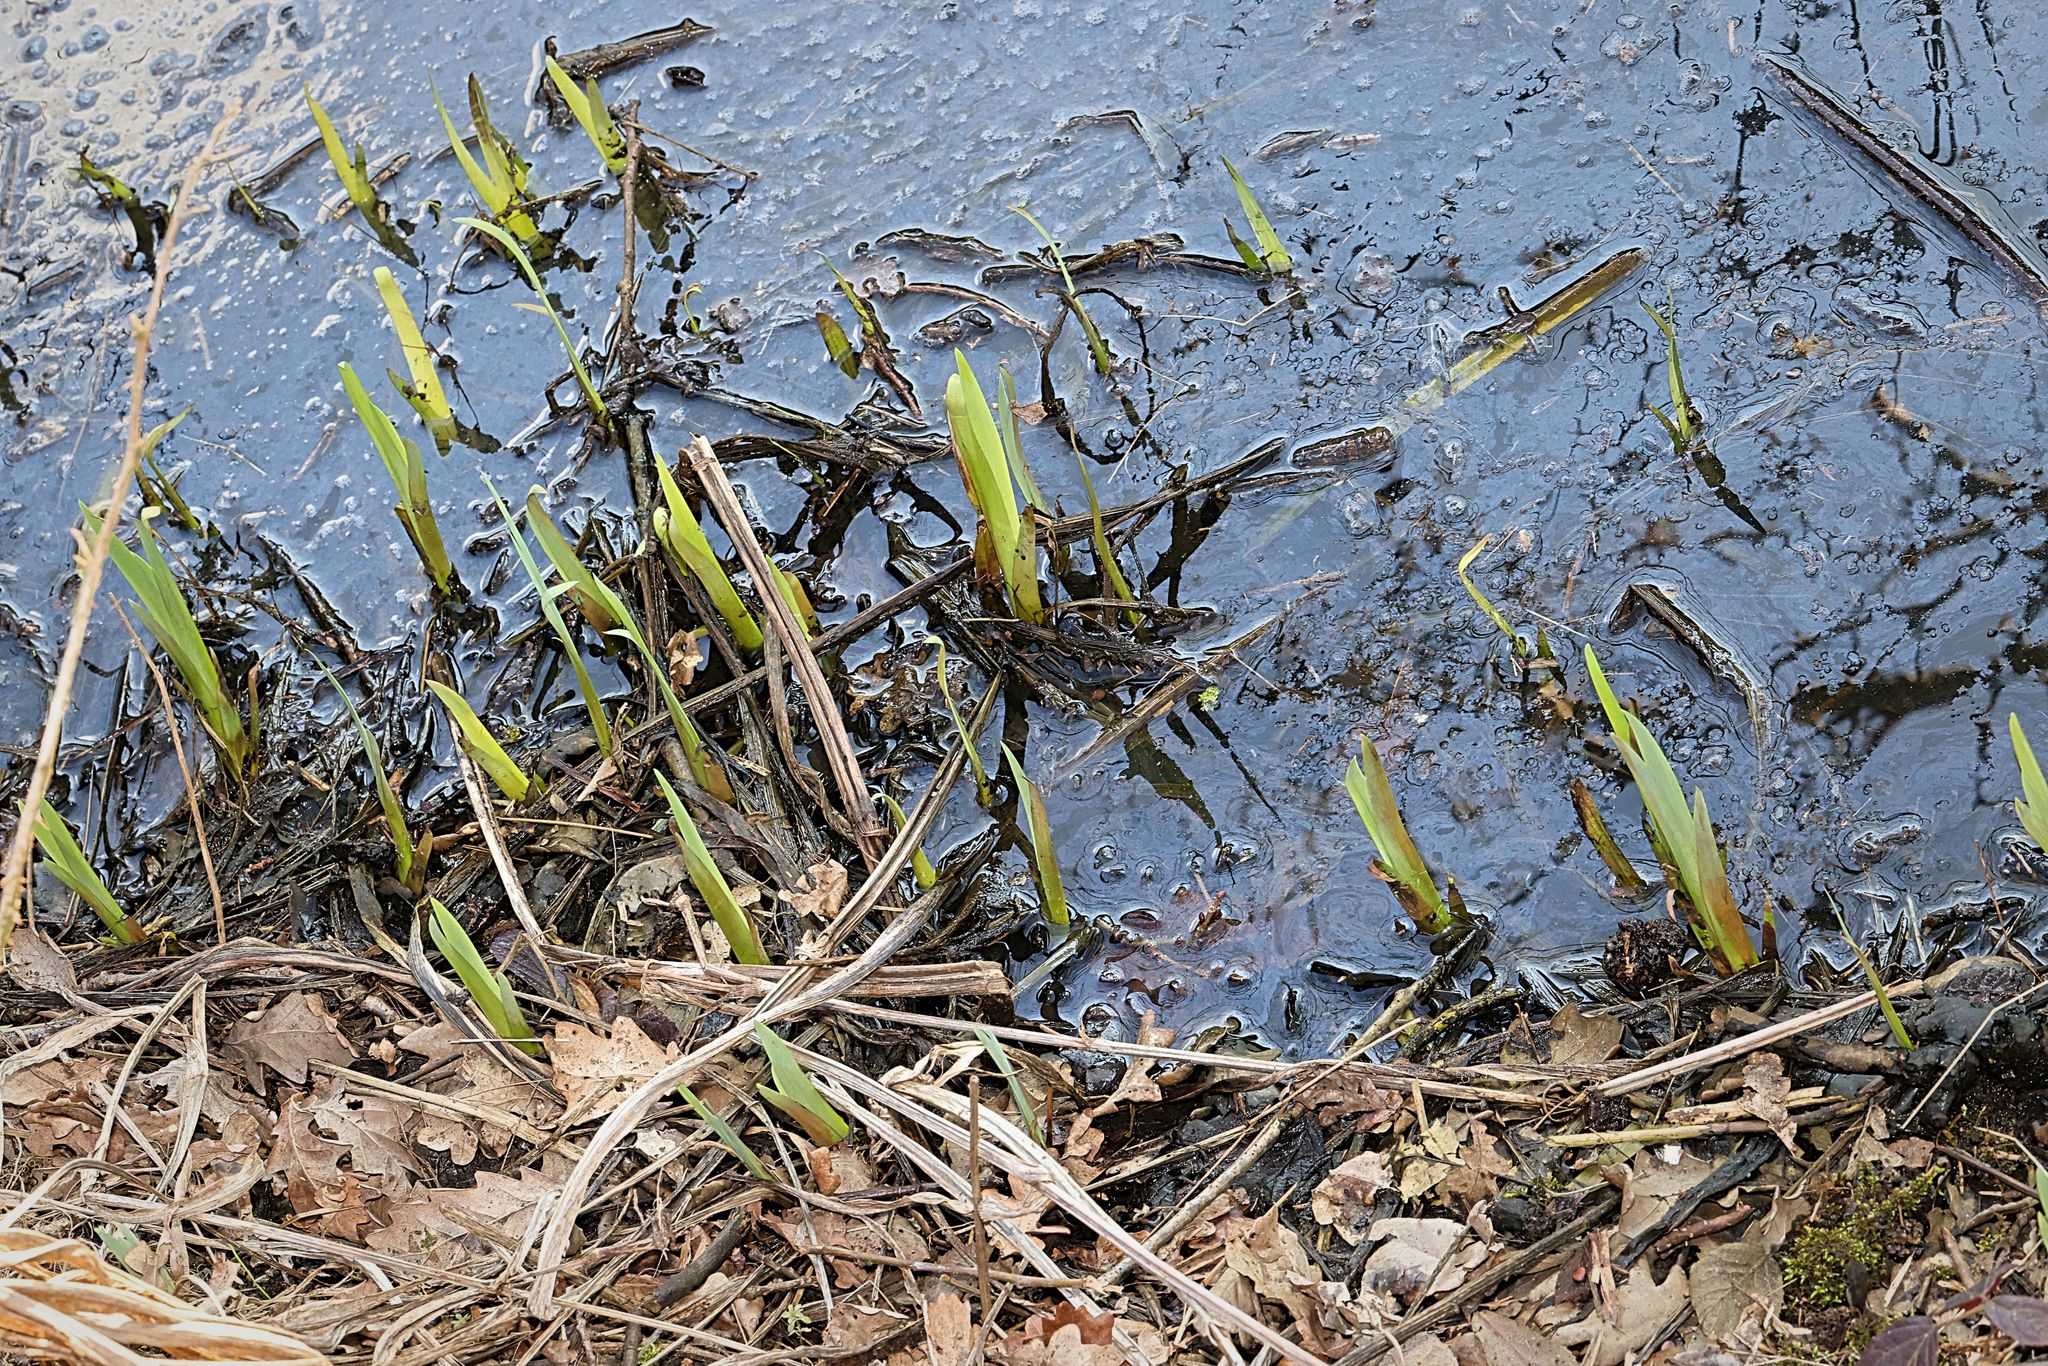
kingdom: Plantae
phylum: Tracheophyta
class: Liliopsida
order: Asparagales
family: Iridaceae
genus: Iris
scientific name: Iris pseudacorus
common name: Yellow flag
